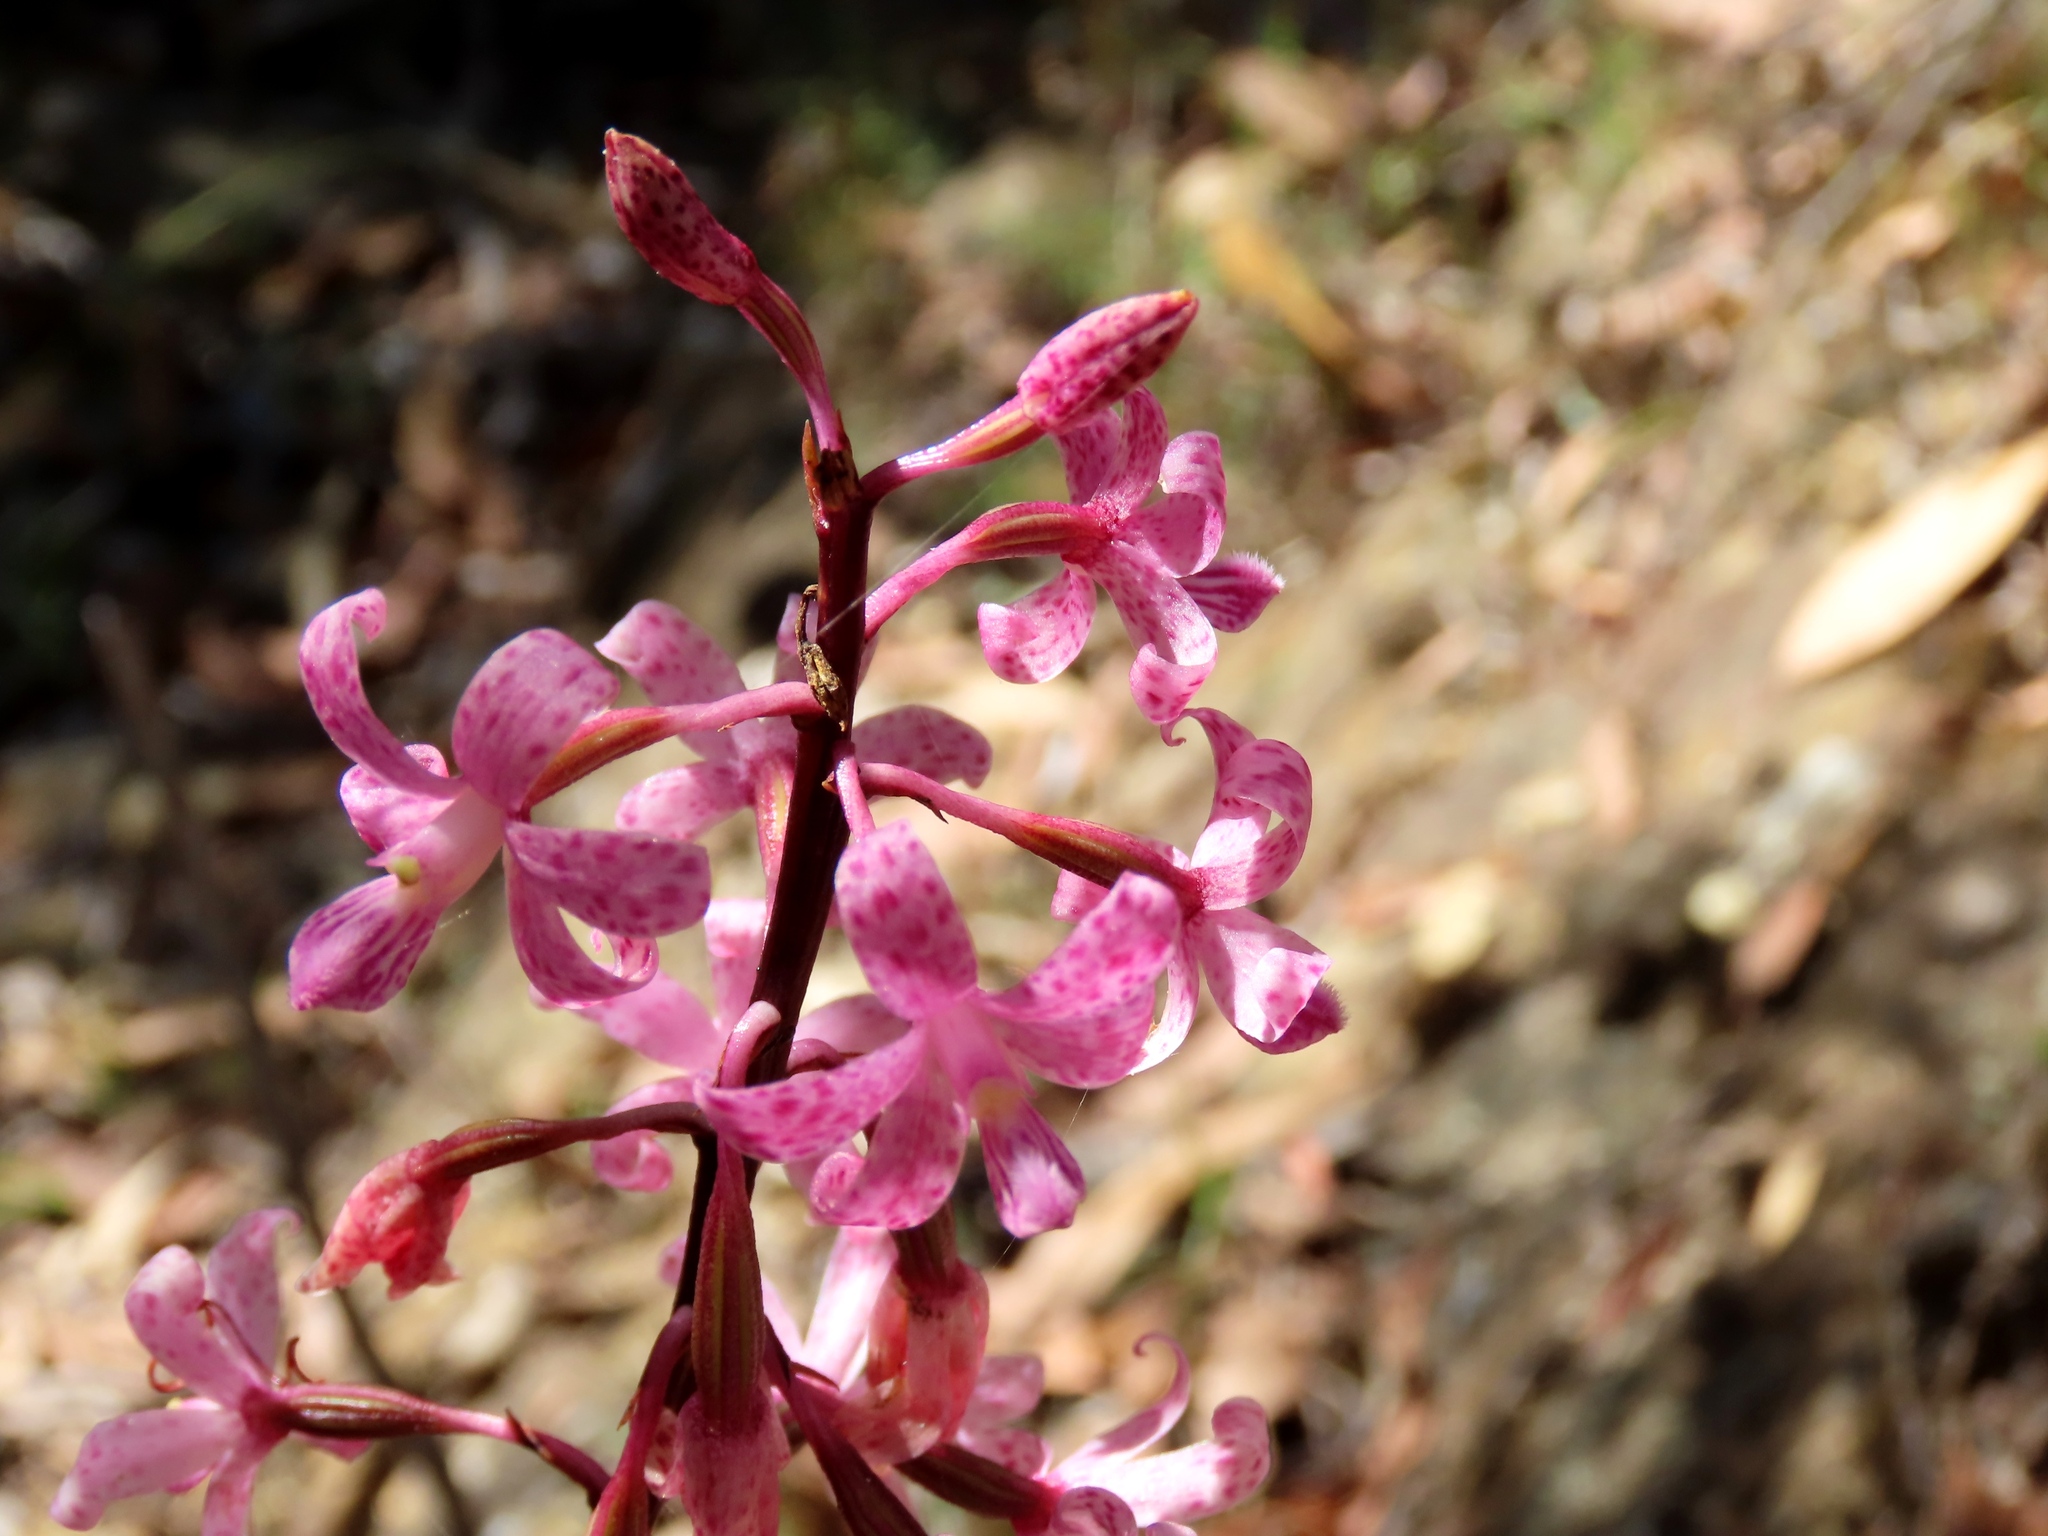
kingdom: Plantae
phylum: Tracheophyta
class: Liliopsida
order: Asparagales
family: Orchidaceae
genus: Dipodium
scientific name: Dipodium roseum
